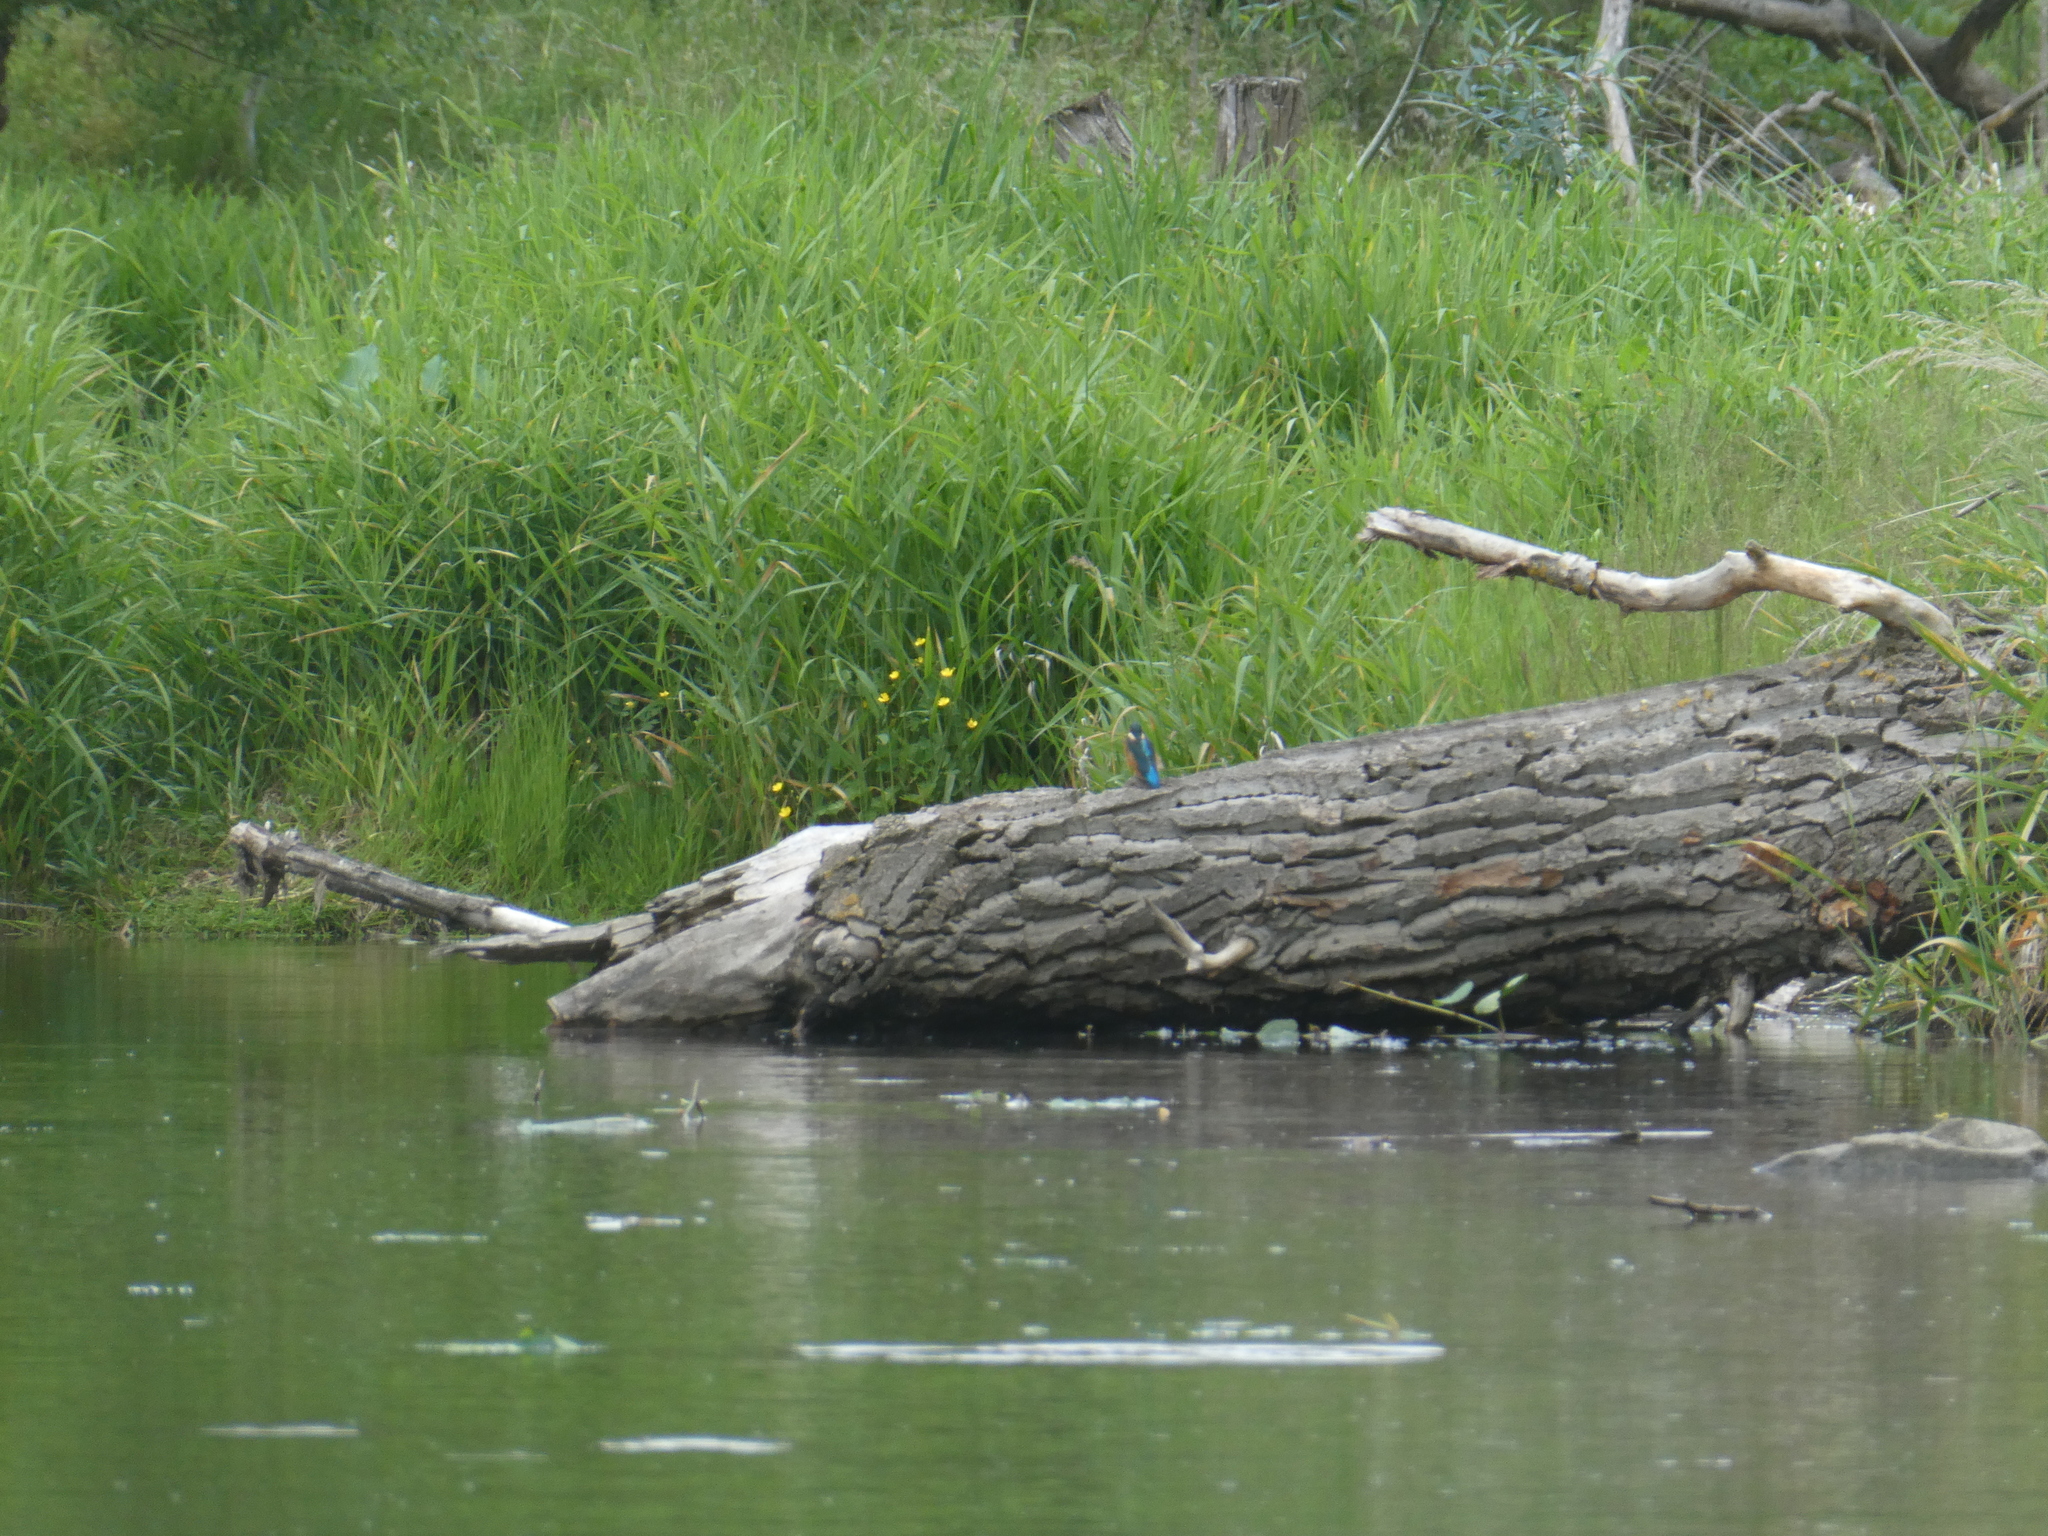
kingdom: Animalia
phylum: Chordata
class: Aves
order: Coraciiformes
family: Alcedinidae
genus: Alcedo
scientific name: Alcedo atthis
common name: Common kingfisher
